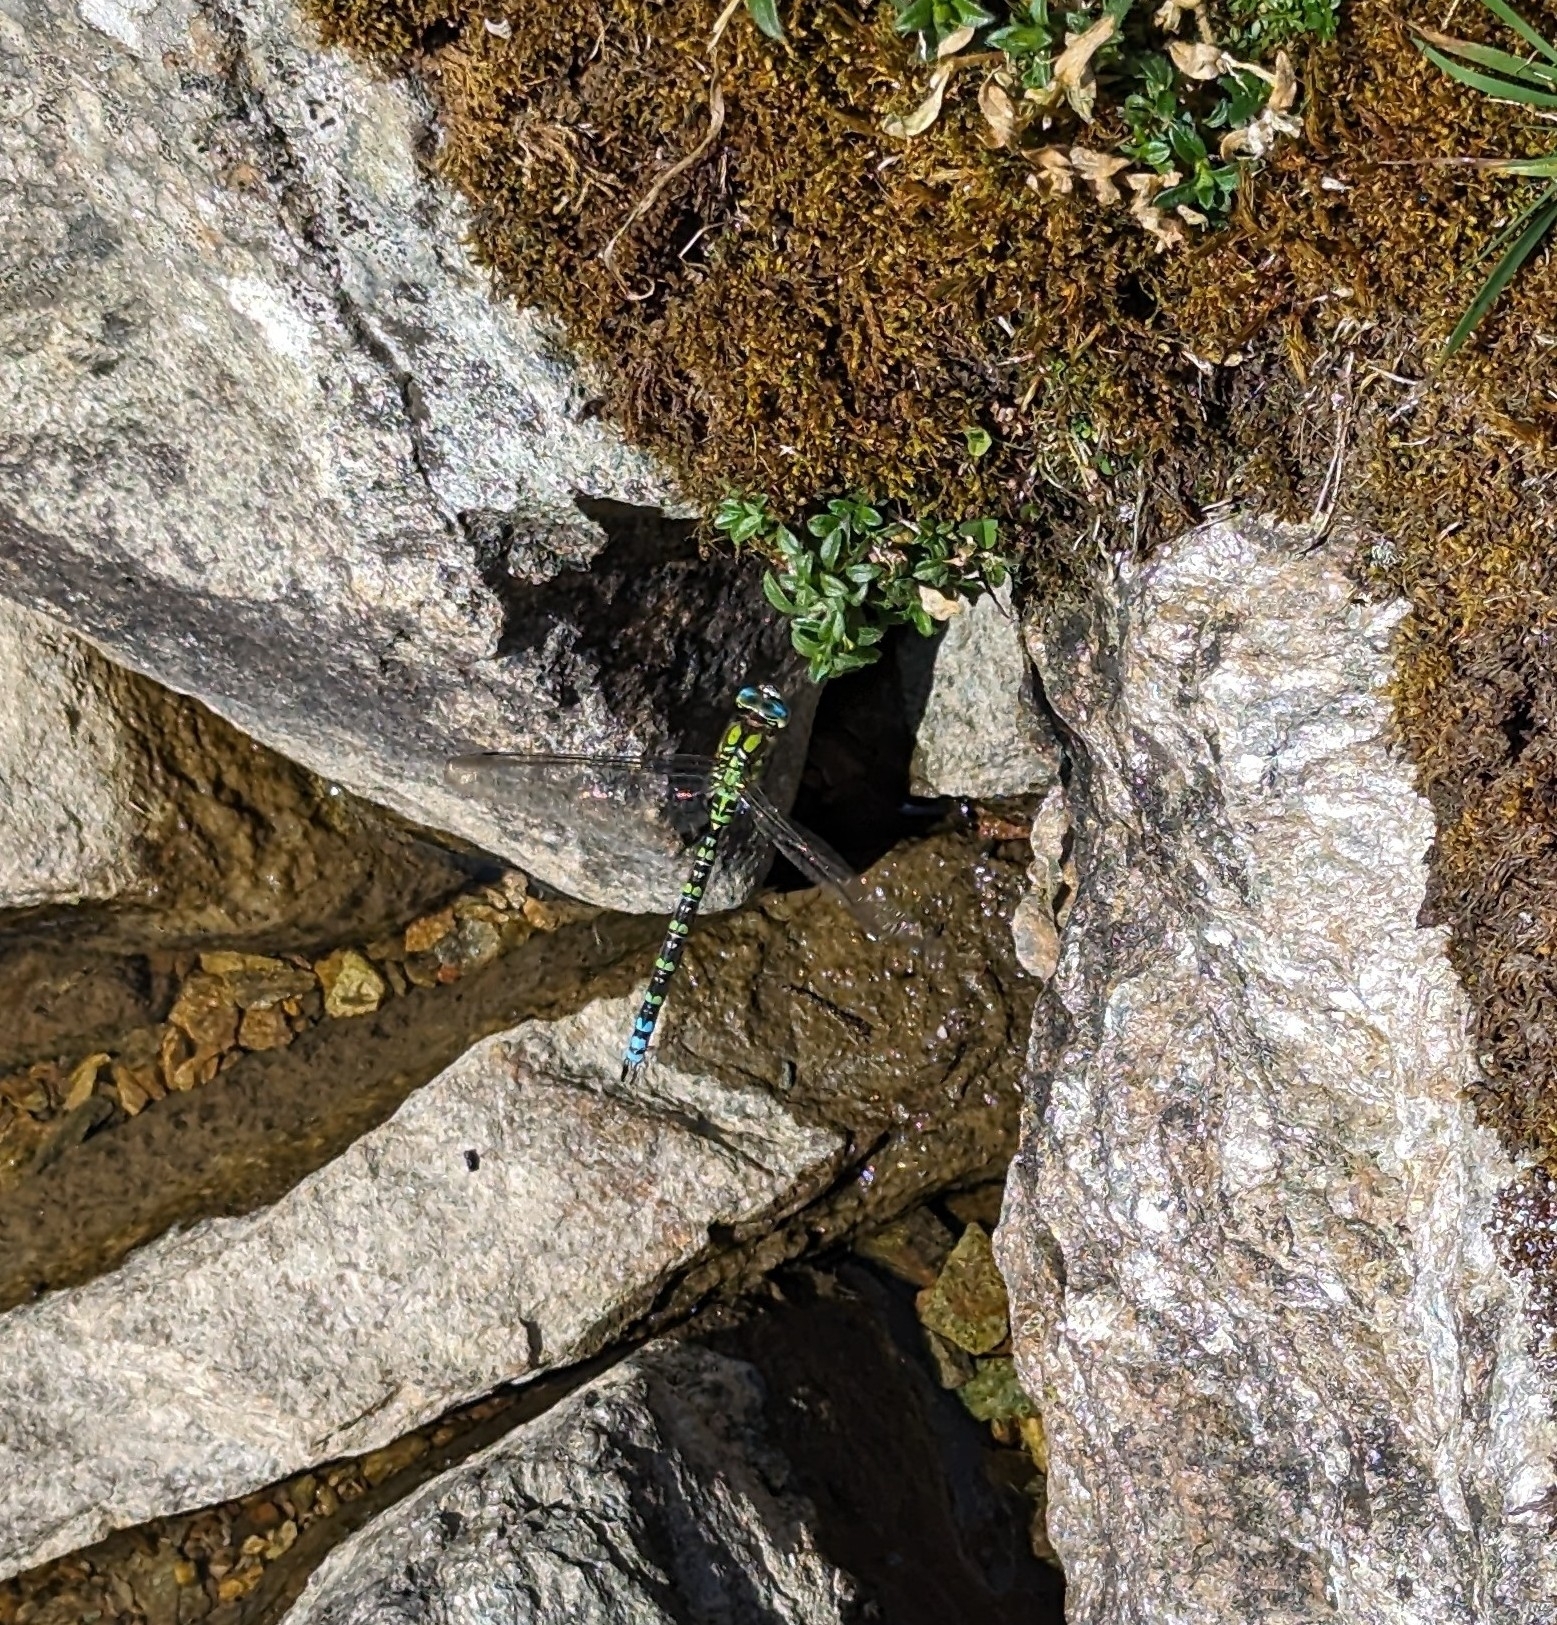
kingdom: Animalia
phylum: Arthropoda
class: Insecta
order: Odonata
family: Aeshnidae
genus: Aeshna
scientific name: Aeshna cyanea
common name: Southern hawker
